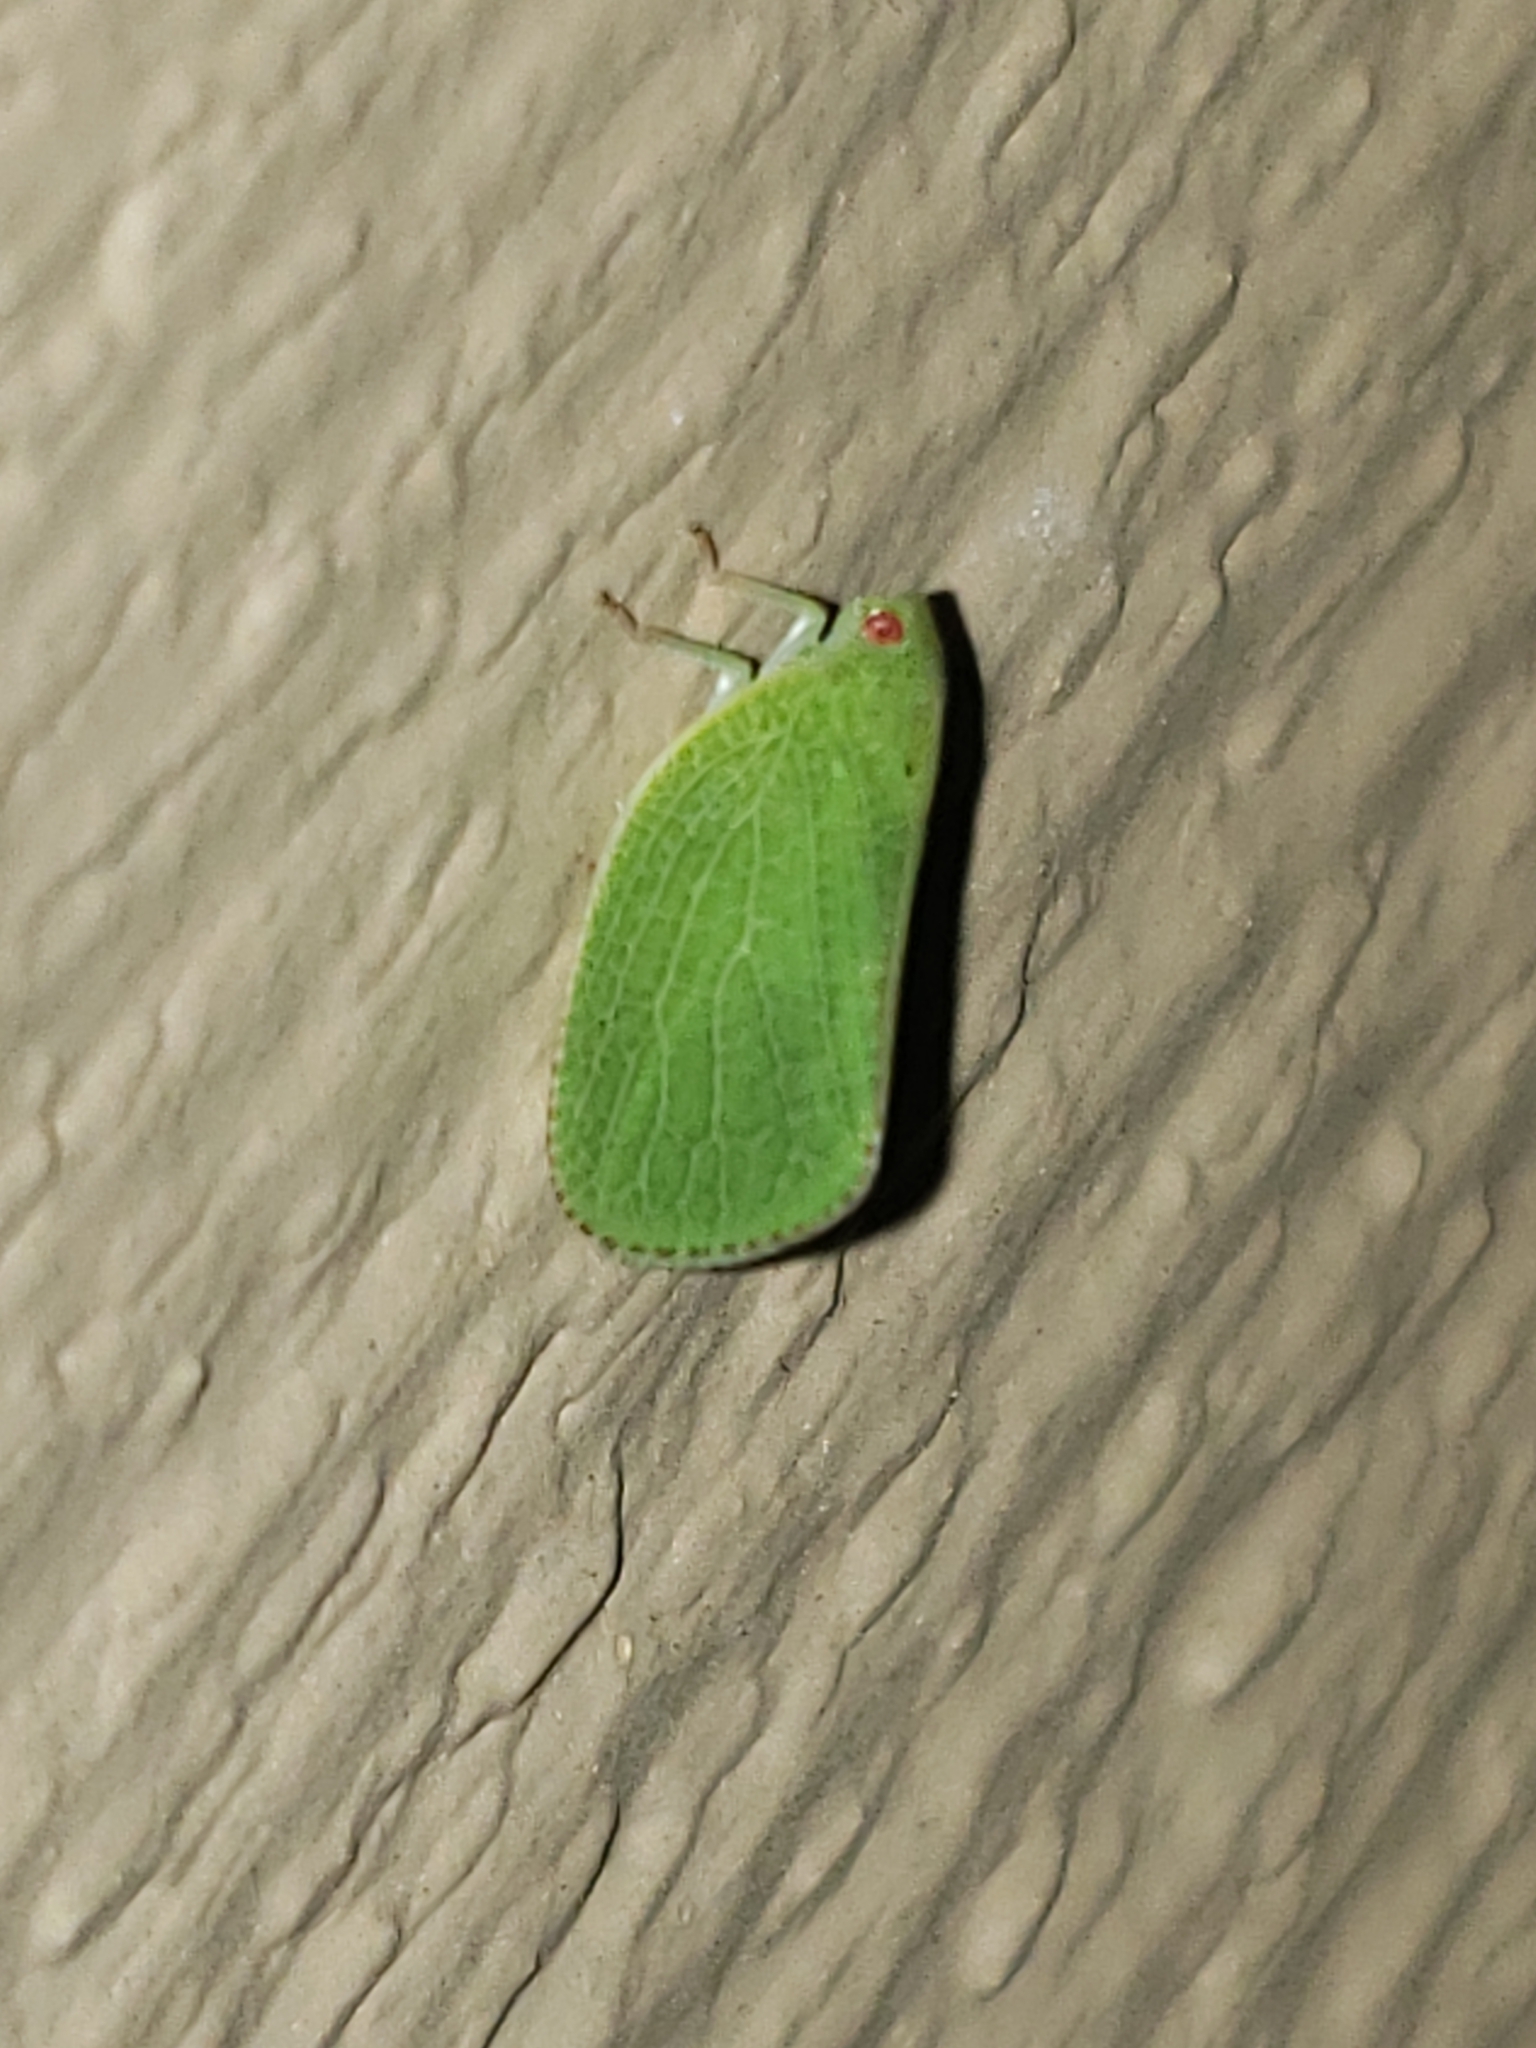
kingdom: Animalia
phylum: Arthropoda
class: Insecta
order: Hemiptera
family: Acanaloniidae
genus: Acanalonia
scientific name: Acanalonia conica
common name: Green cone-headed planthopper
